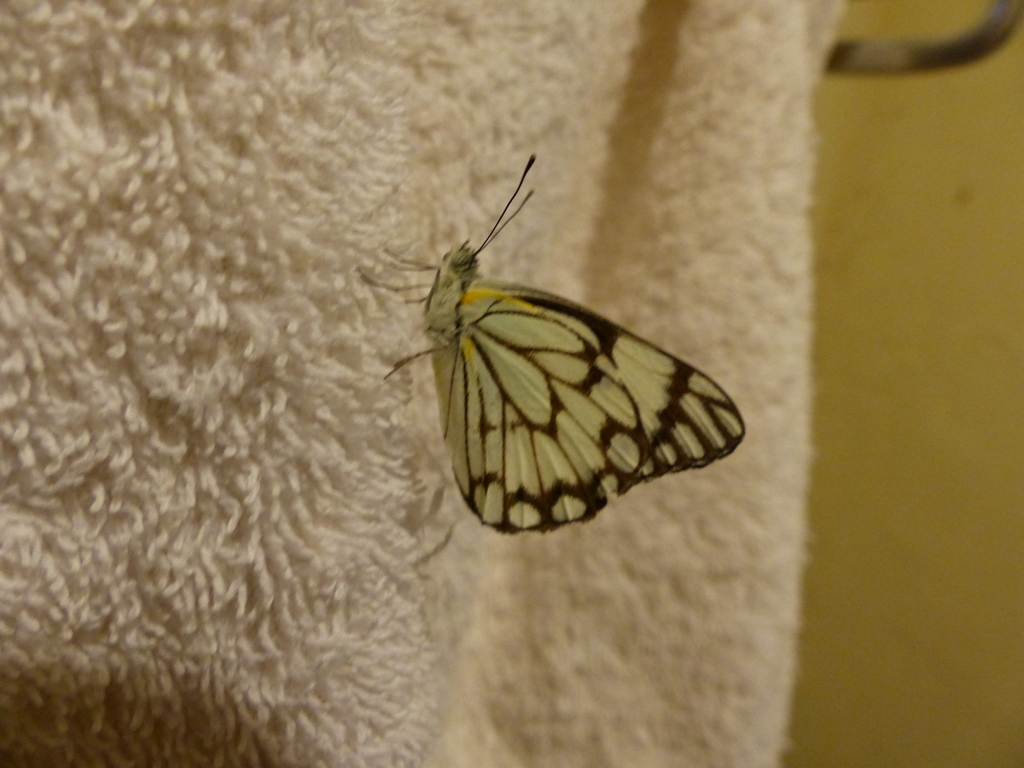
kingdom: Animalia
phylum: Arthropoda
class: Insecta
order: Lepidoptera
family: Pieridae
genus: Belenois
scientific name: Belenois aurota
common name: Brown-veined white
